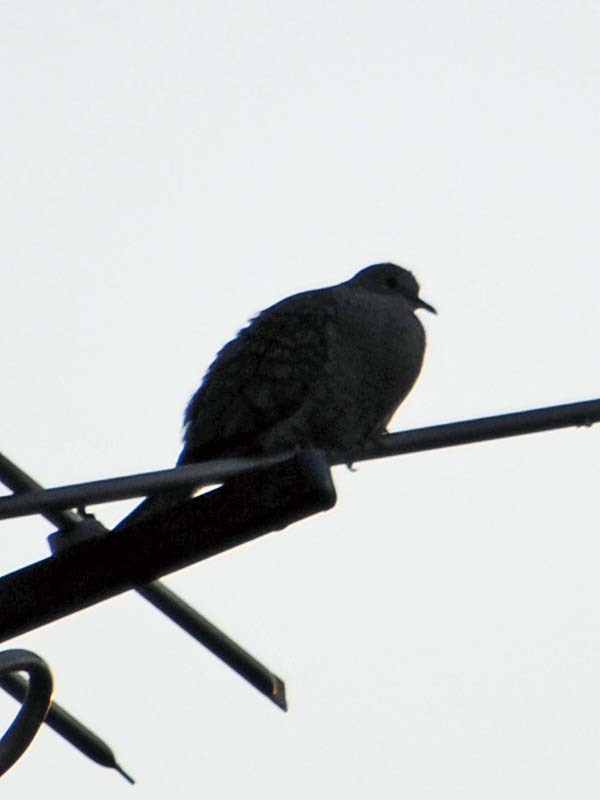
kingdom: Animalia
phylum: Chordata
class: Aves
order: Columbiformes
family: Columbidae
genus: Columbina
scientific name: Columbina inca
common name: Inca dove
